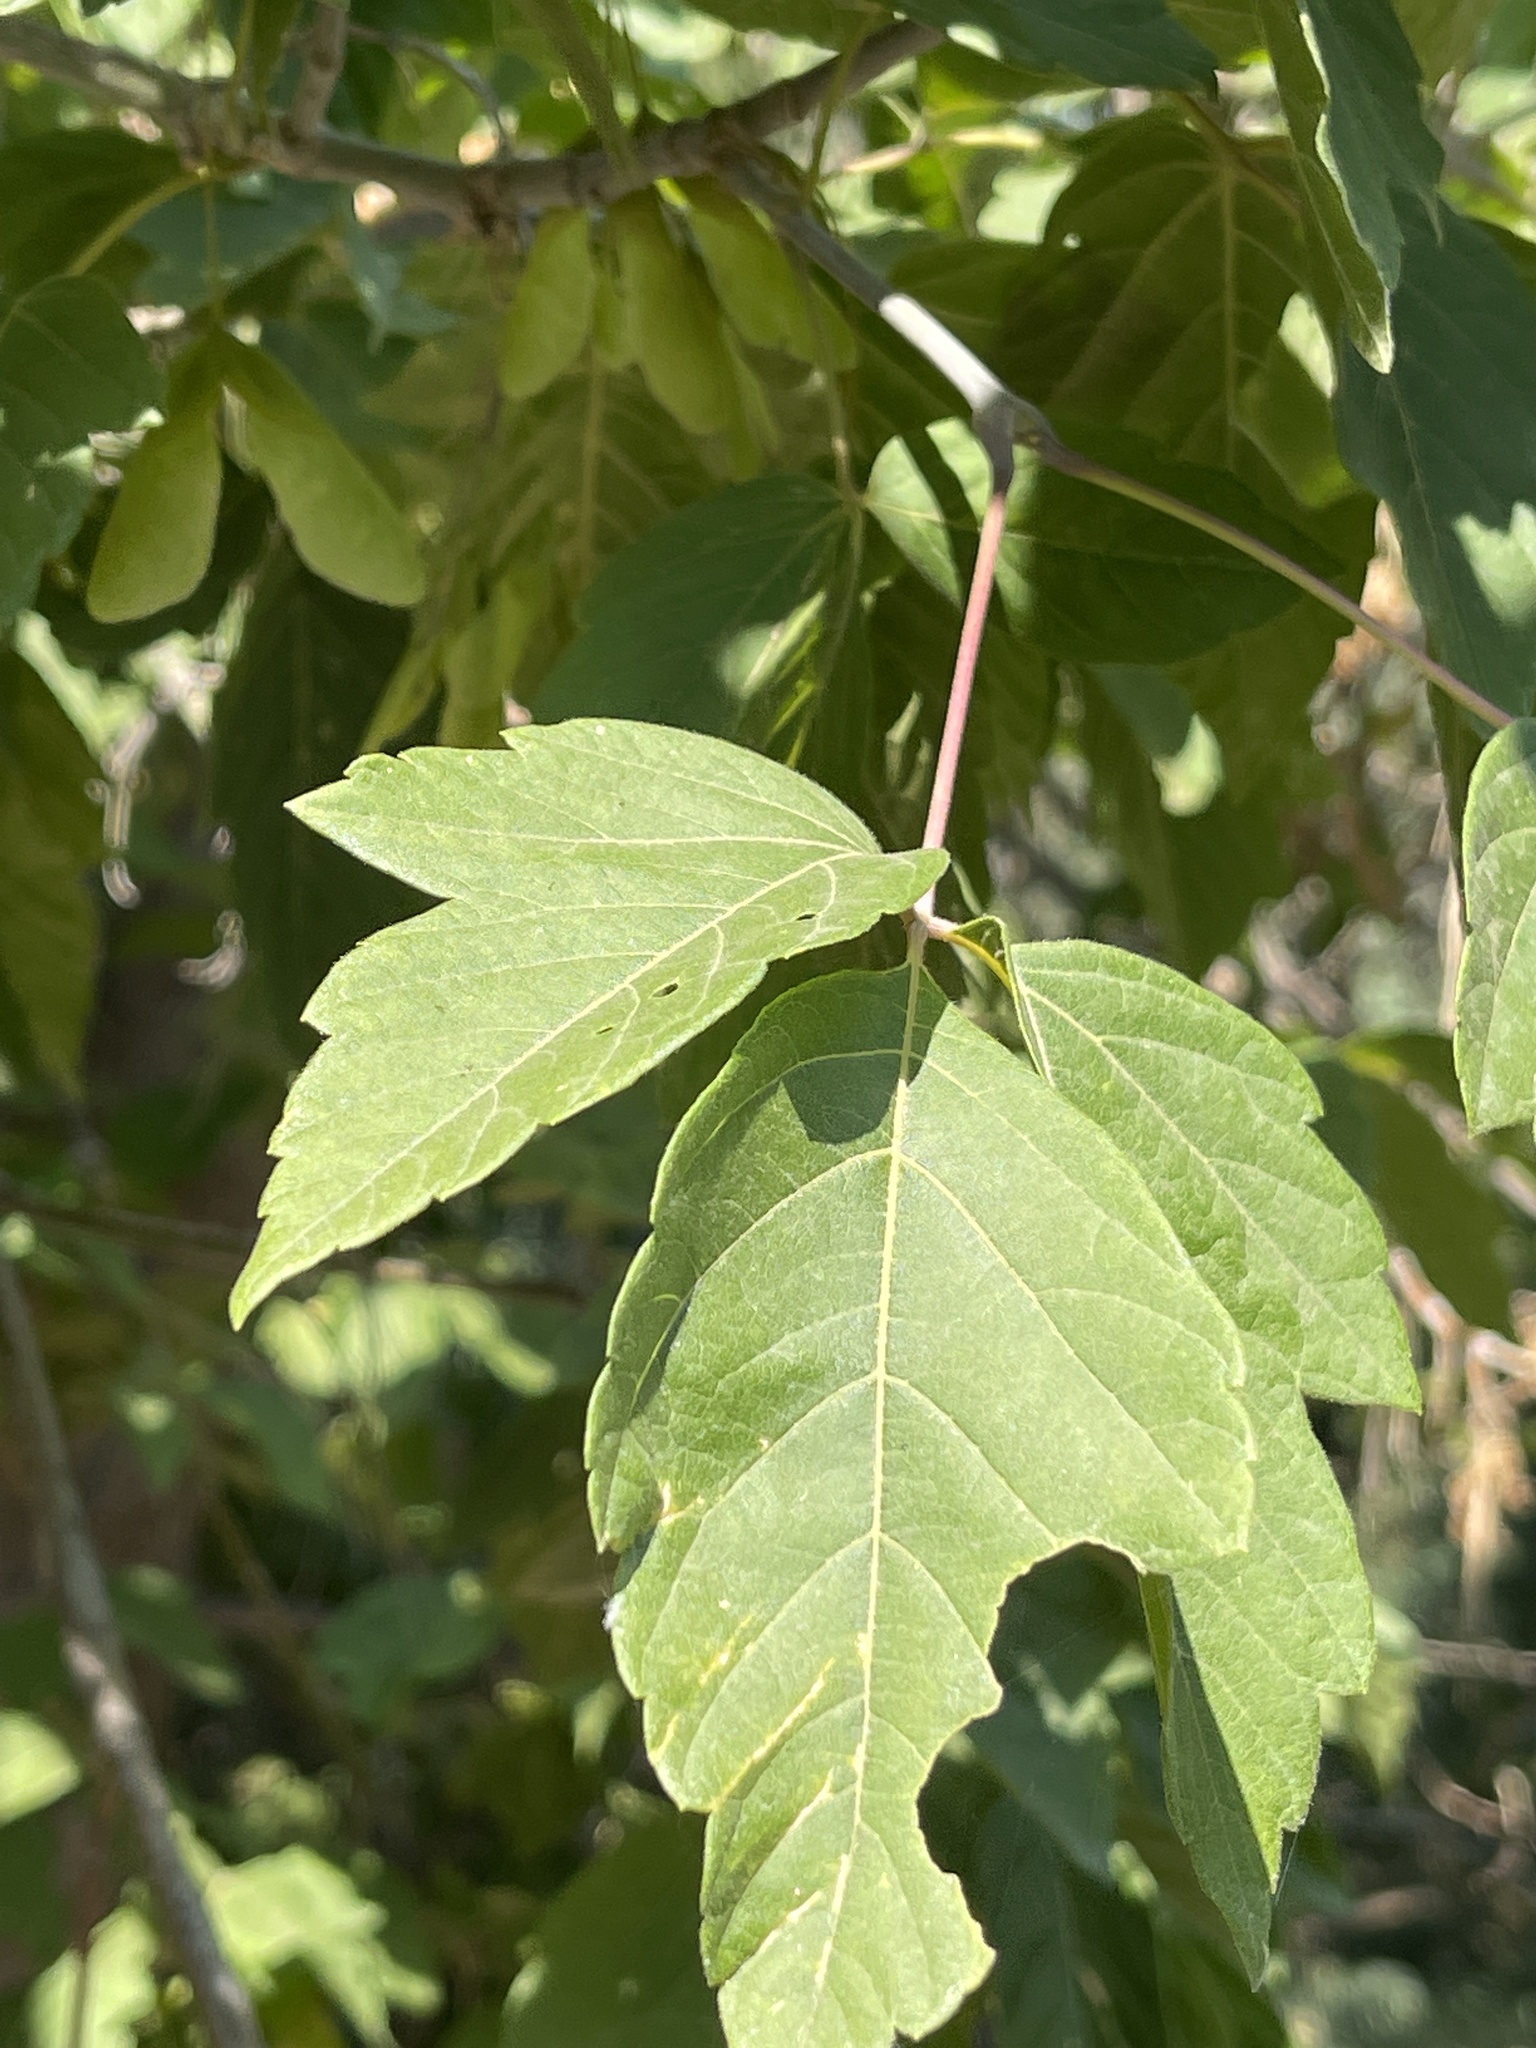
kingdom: Plantae
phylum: Tracheophyta
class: Magnoliopsida
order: Sapindales
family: Sapindaceae
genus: Acer
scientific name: Acer negundo
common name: Ashleaf maple
